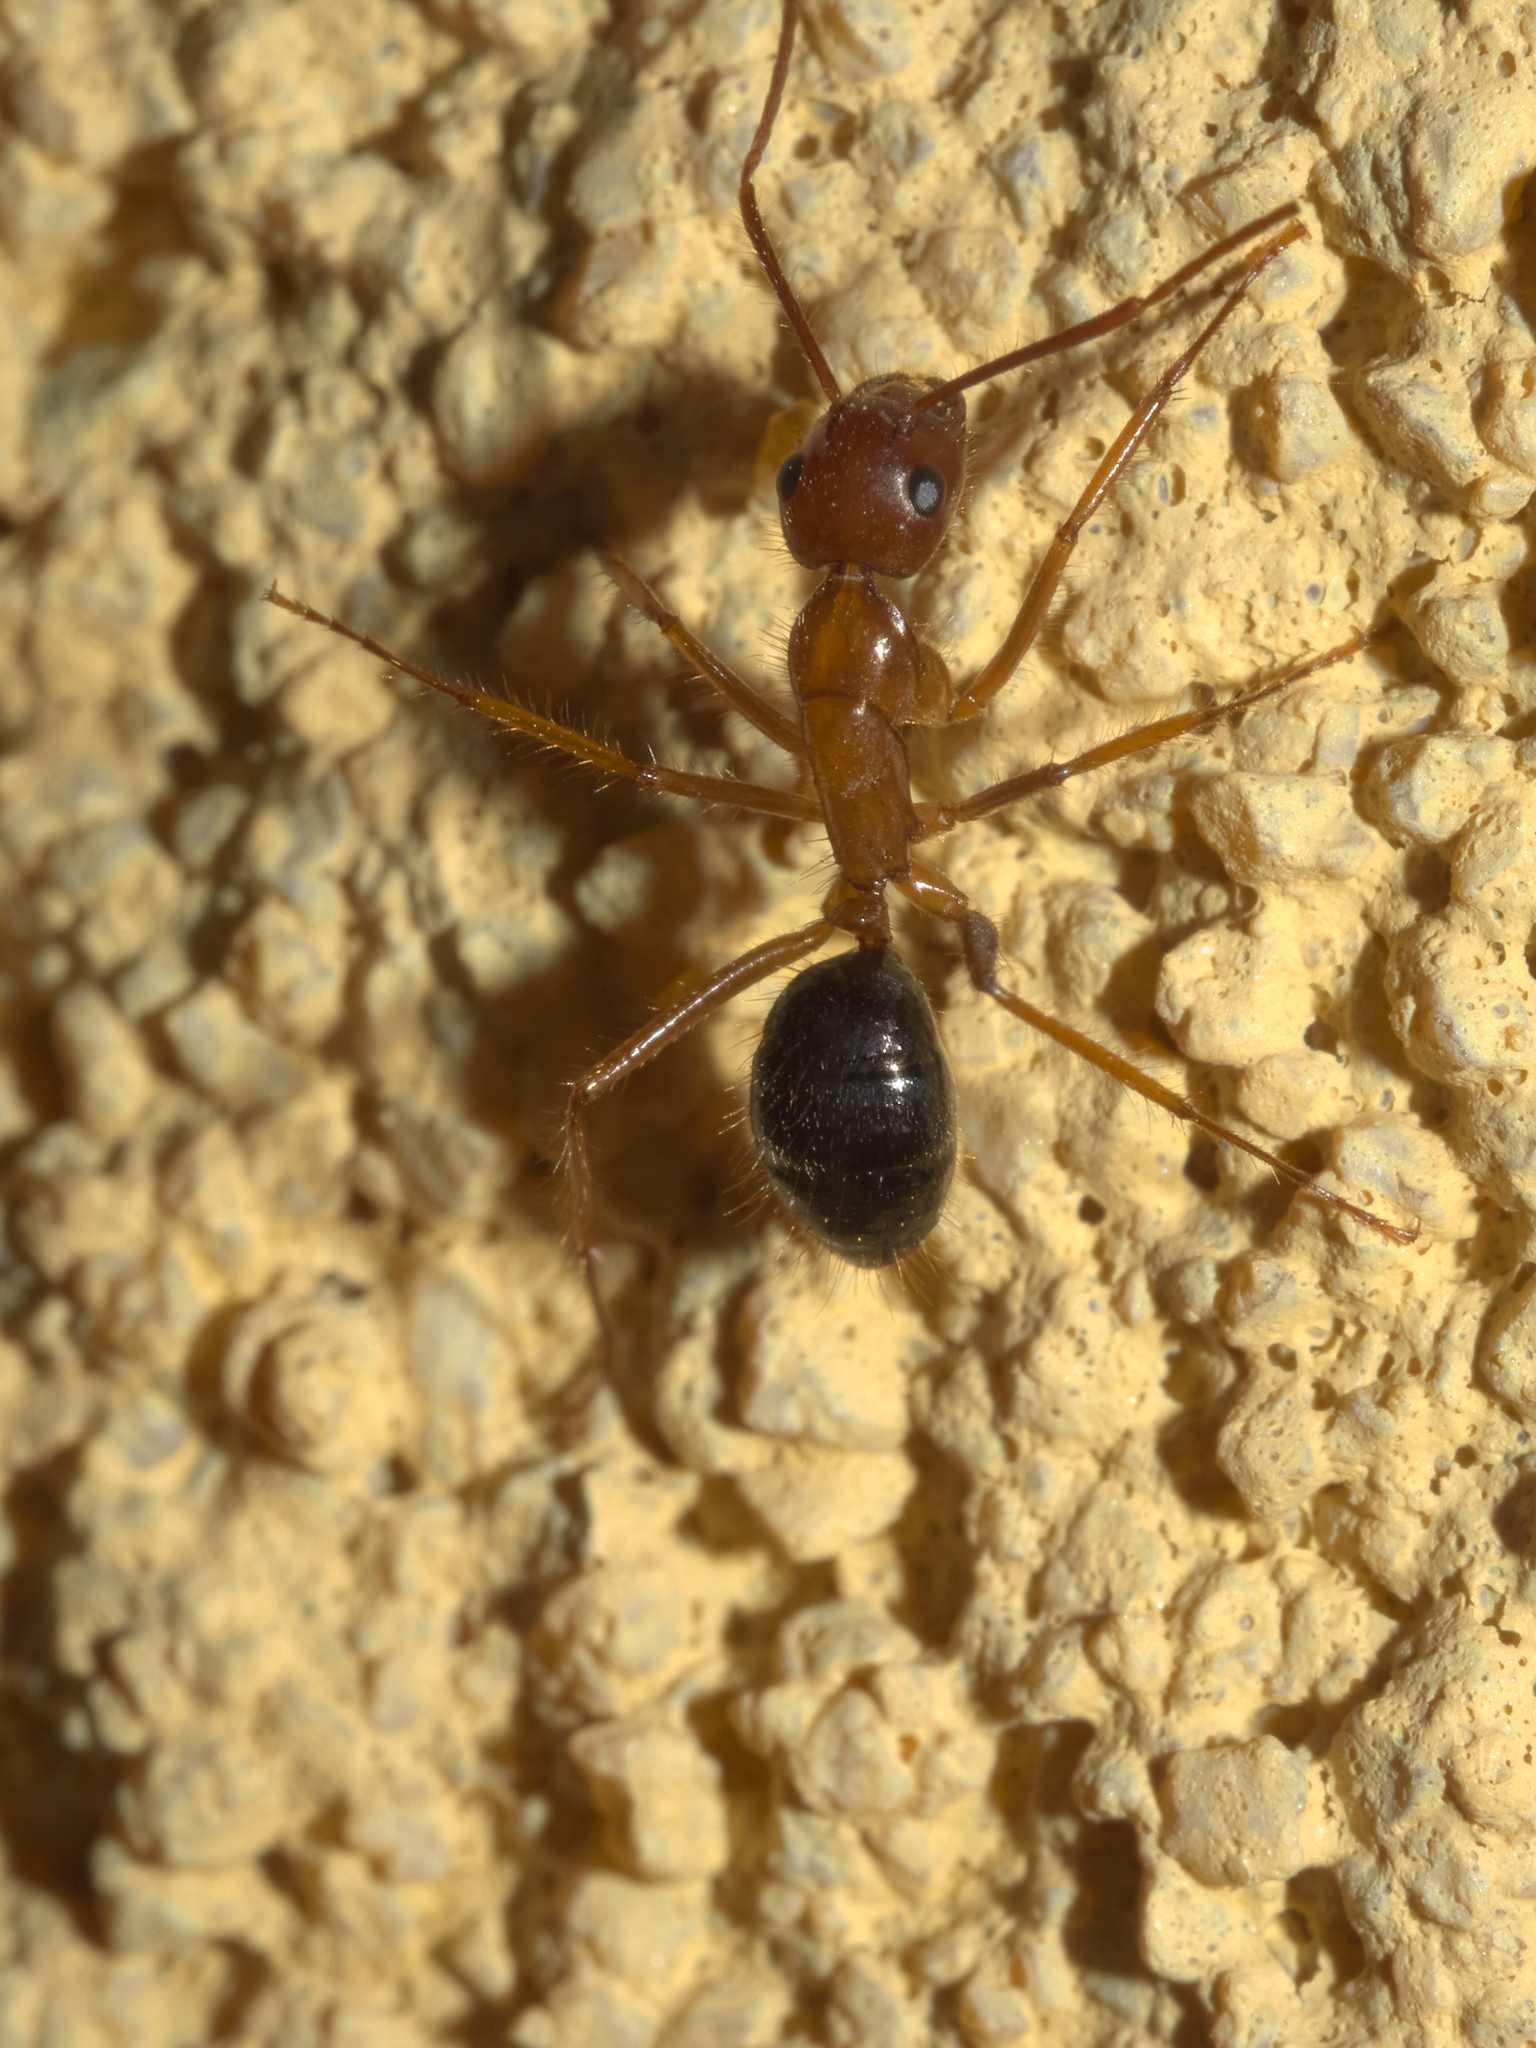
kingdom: Animalia
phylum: Arthropoda
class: Insecta
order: Hymenoptera
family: Formicidae
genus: Camponotus
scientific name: Camponotus floridanus
